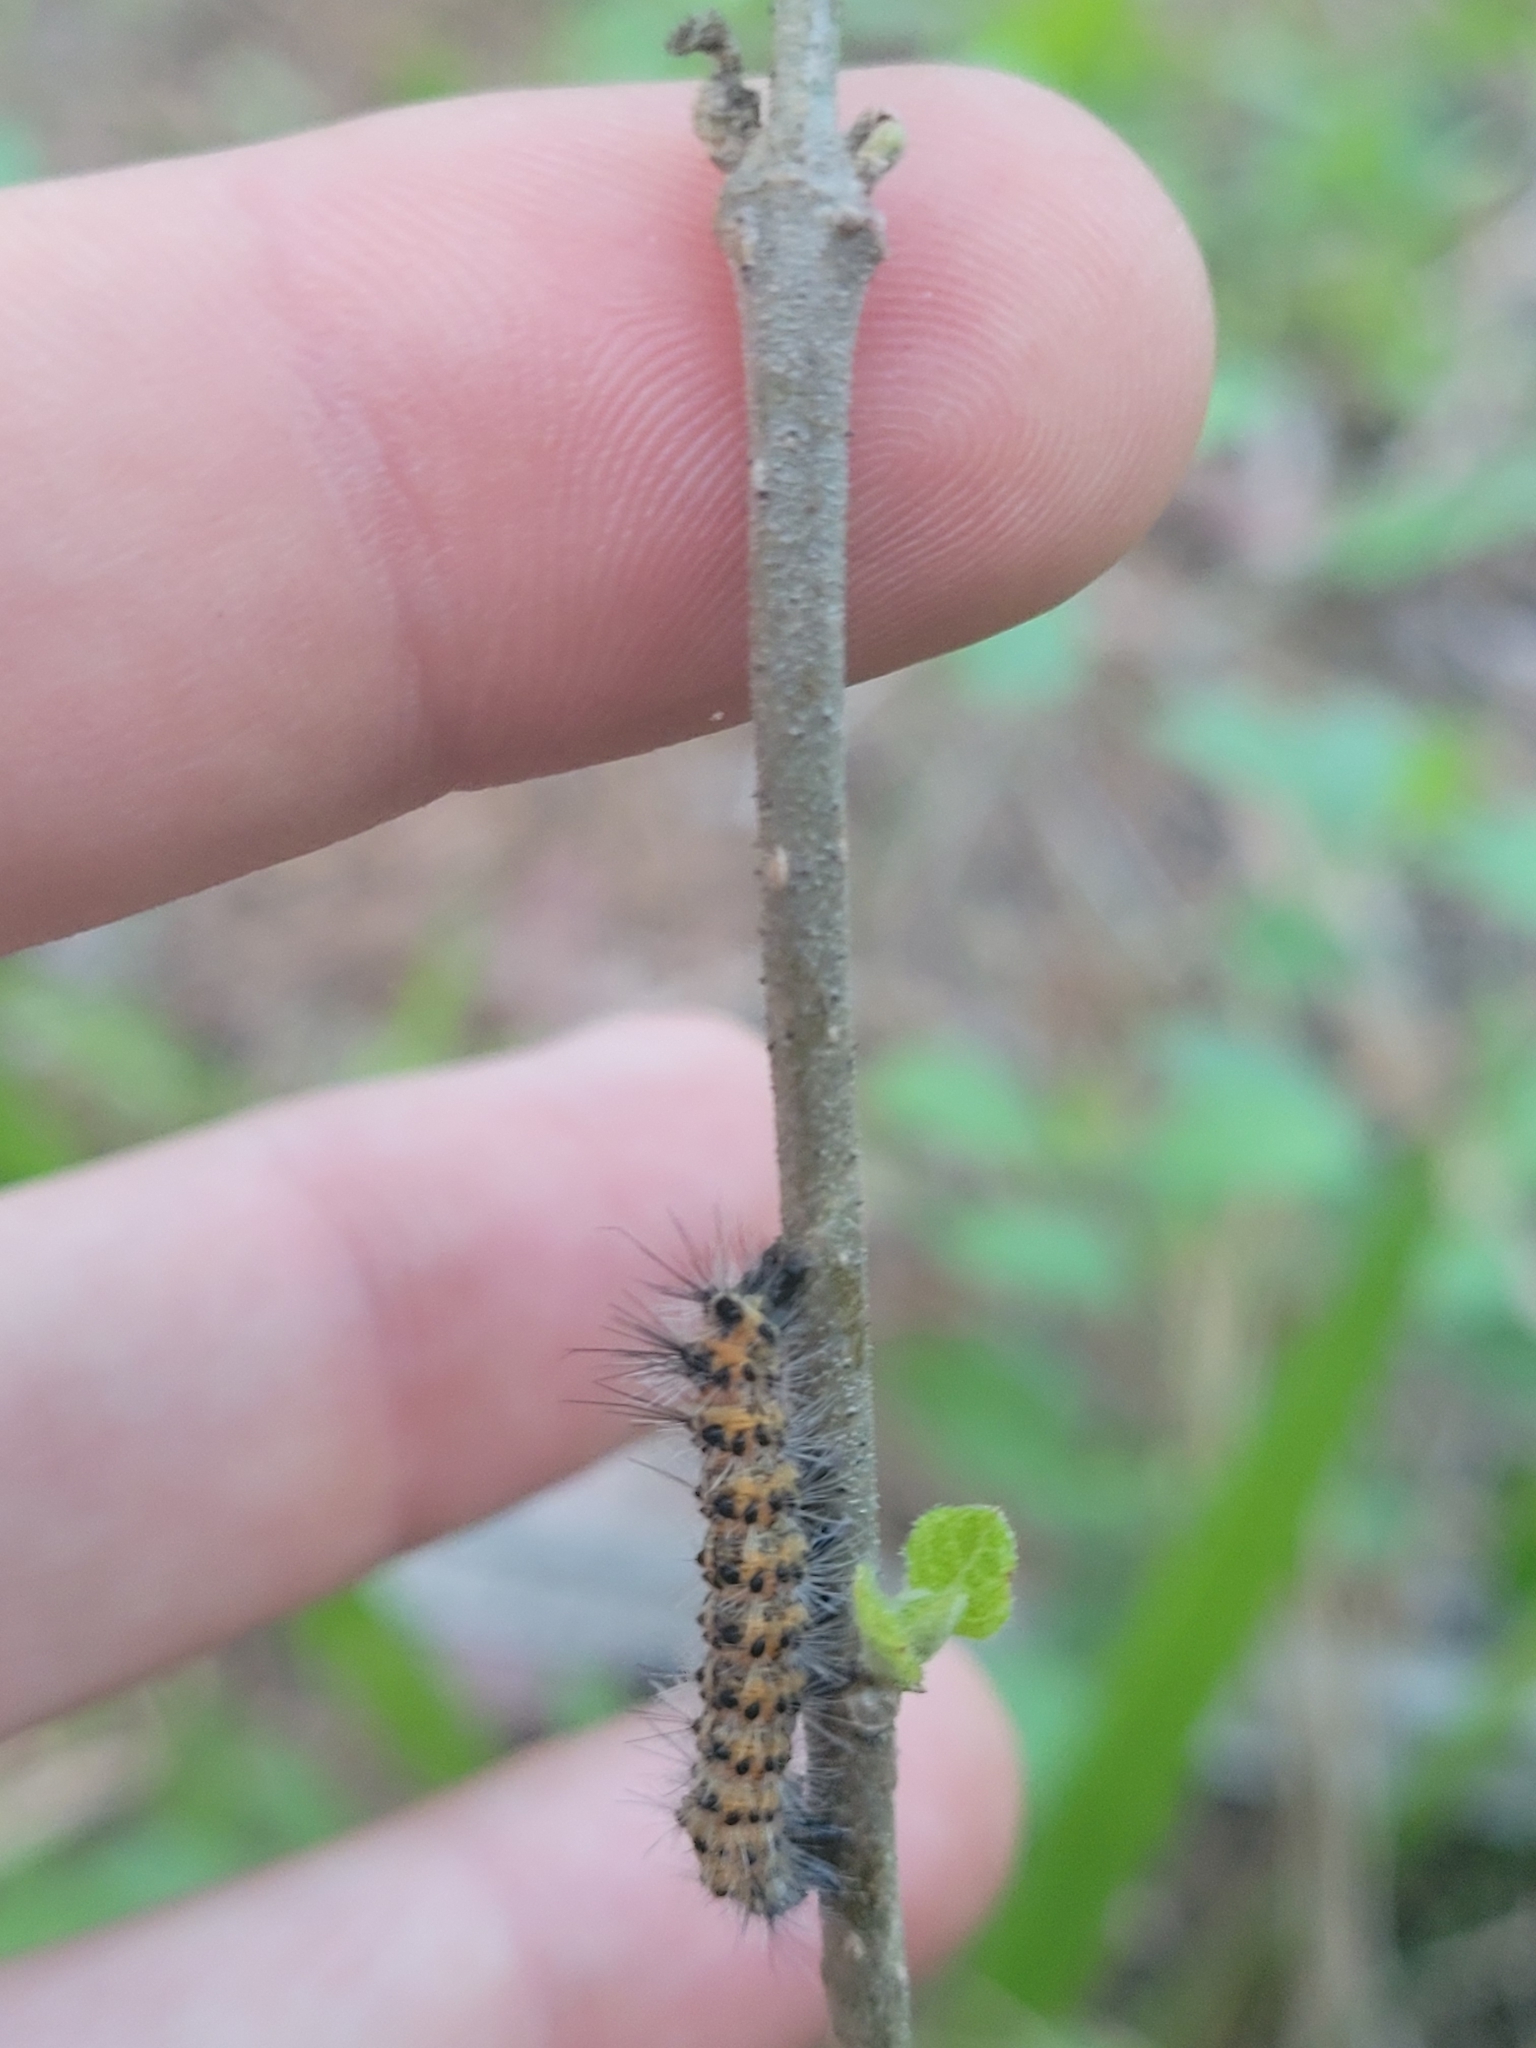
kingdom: Animalia
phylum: Arthropoda
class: Insecta
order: Lepidoptera
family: Erebidae
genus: Spilosoma
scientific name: Spilosoma dubia
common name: Dubious tiger moth
